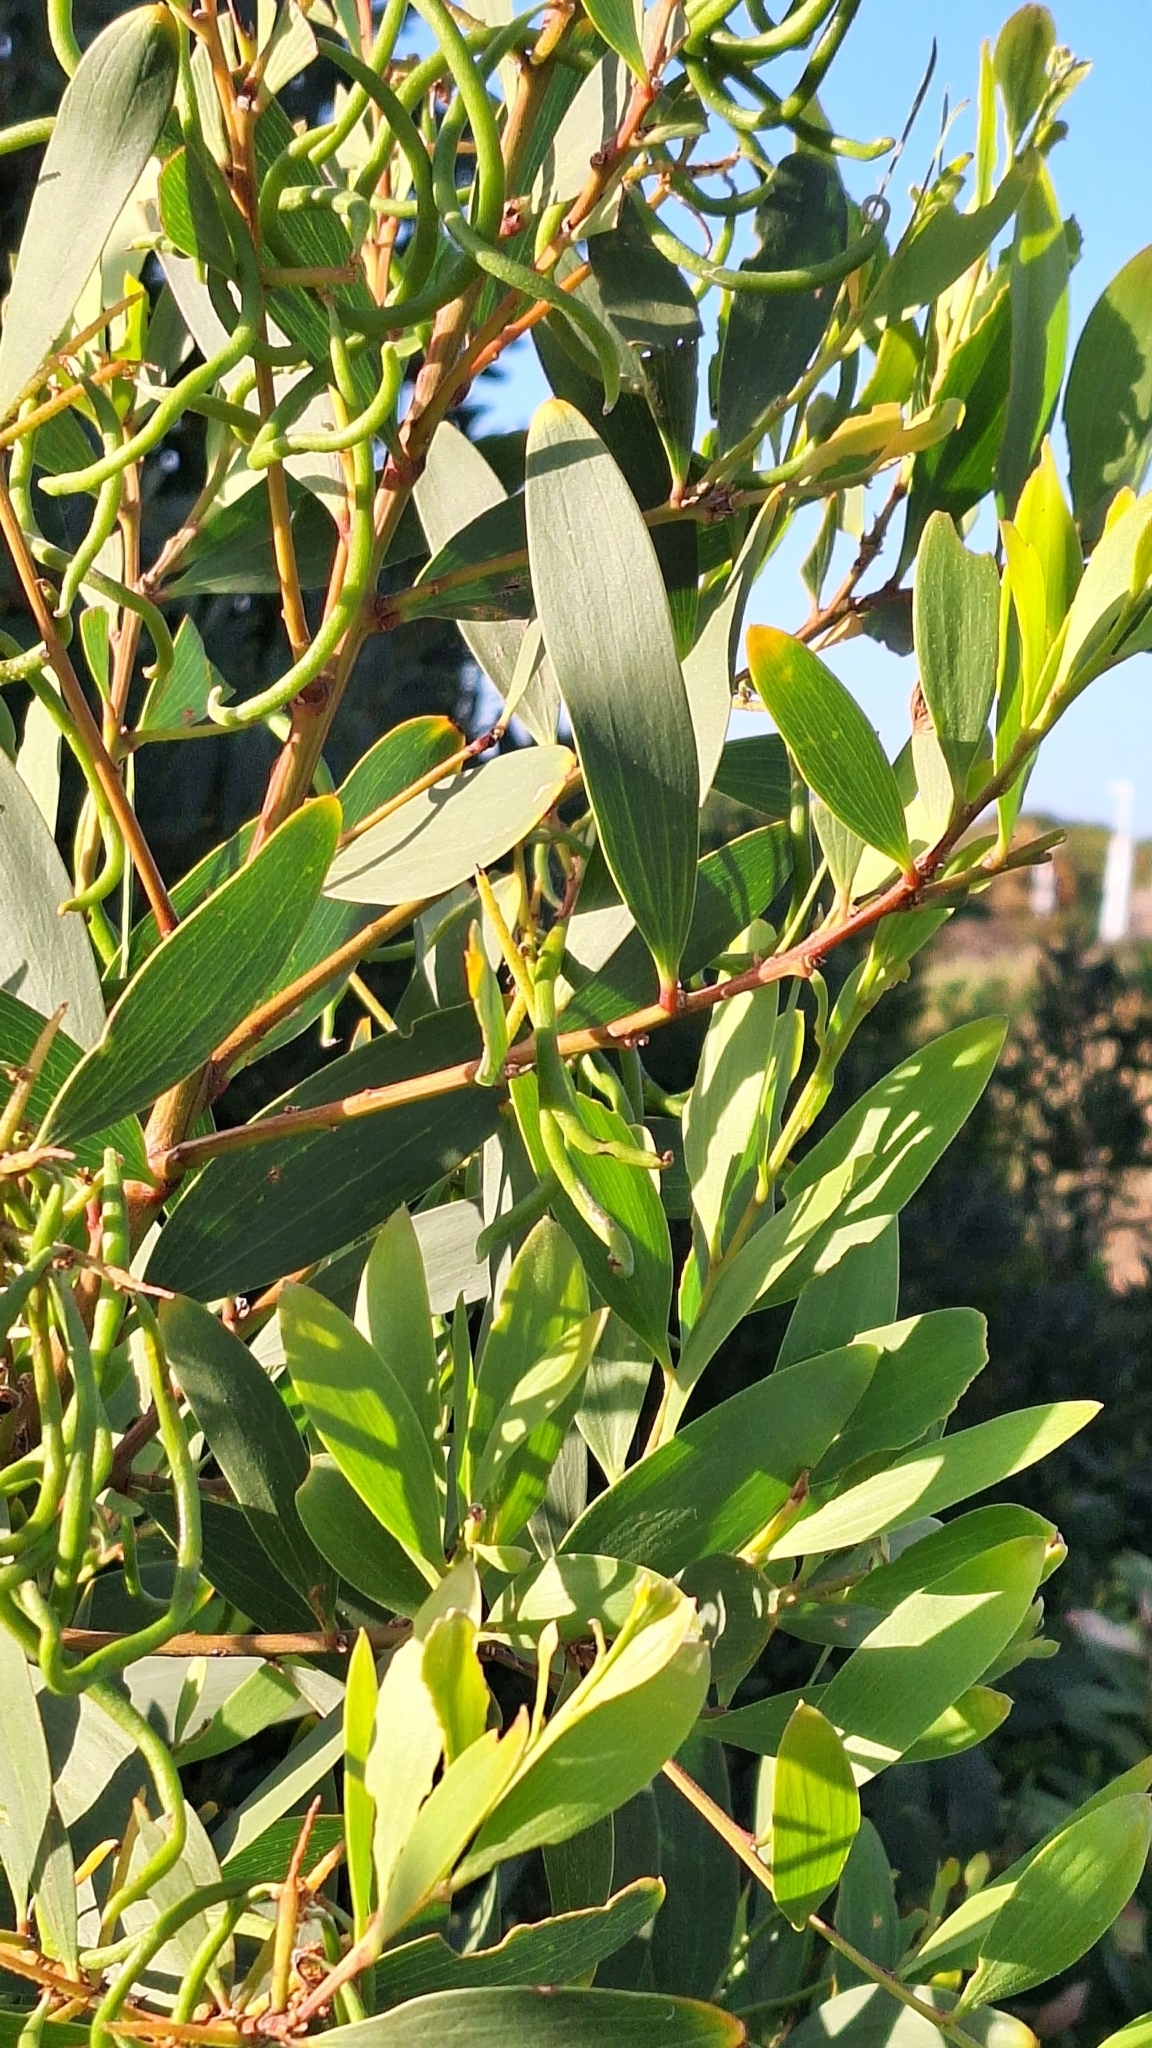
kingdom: Plantae
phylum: Tracheophyta
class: Magnoliopsida
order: Fabales
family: Fabaceae
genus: Acacia
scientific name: Acacia longifolia
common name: Sydney golden wattle
